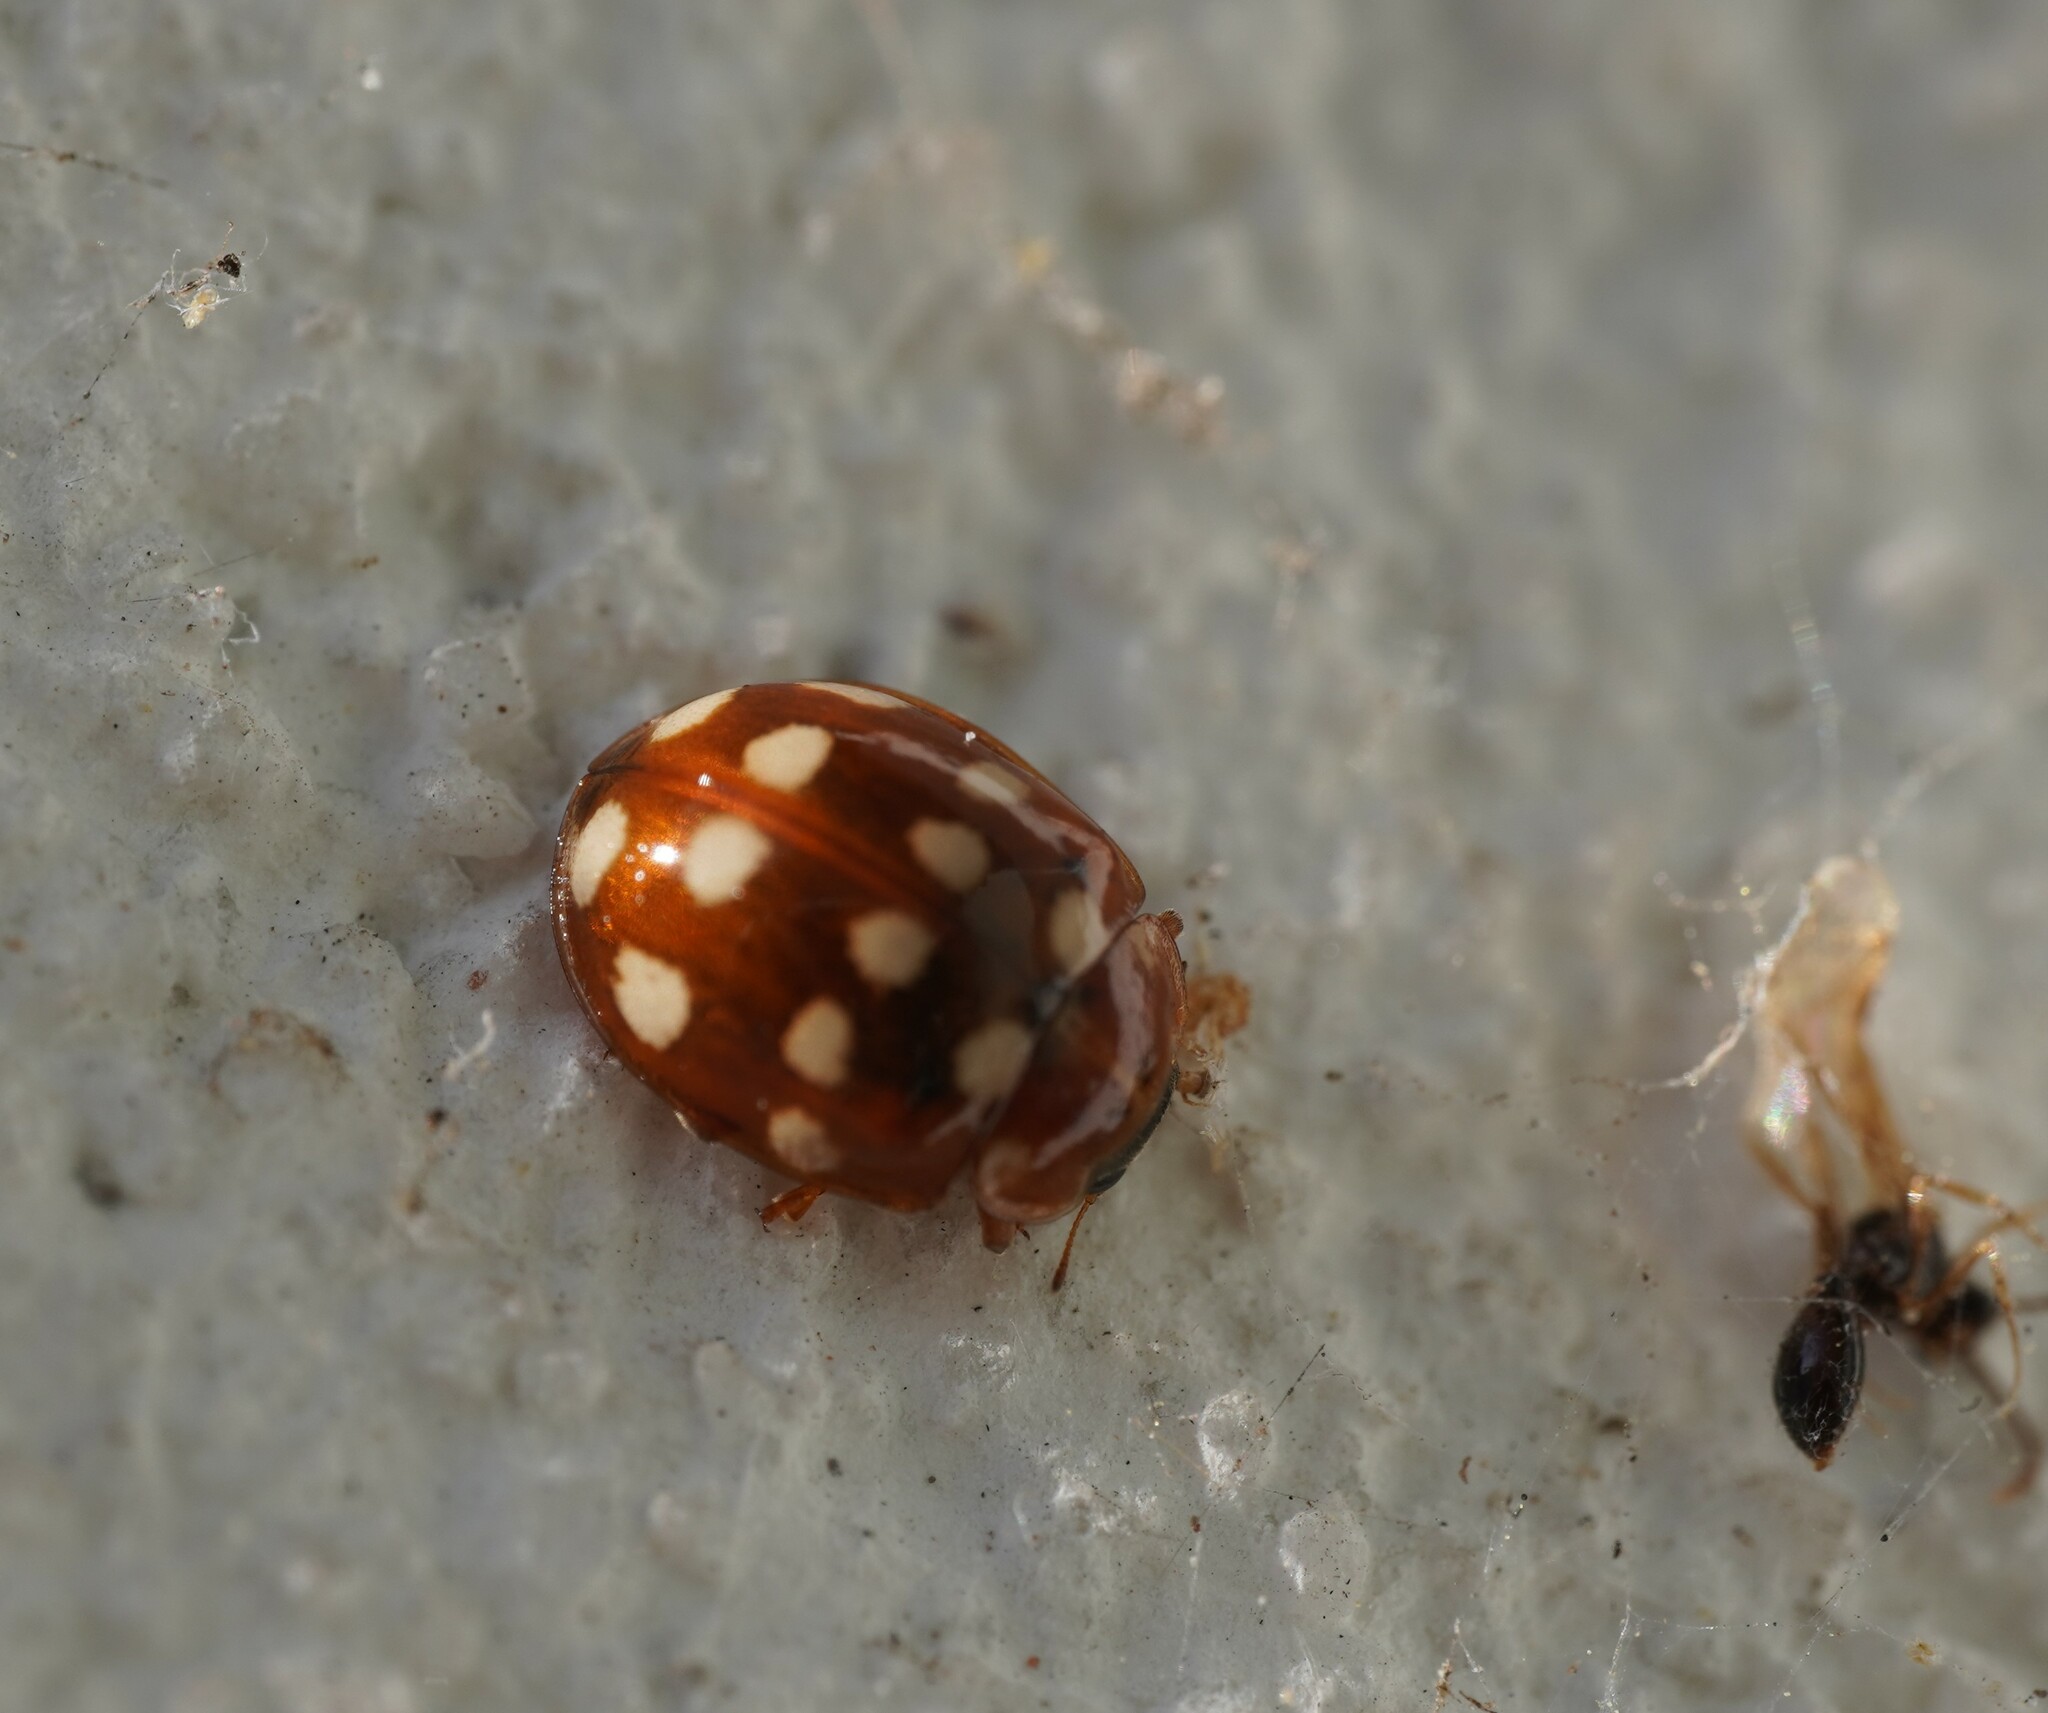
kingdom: Animalia
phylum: Arthropoda
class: Insecta
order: Coleoptera
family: Coccinellidae
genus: Calvia
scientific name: Calvia quatuordecimguttata
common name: Cream-spot ladybird
